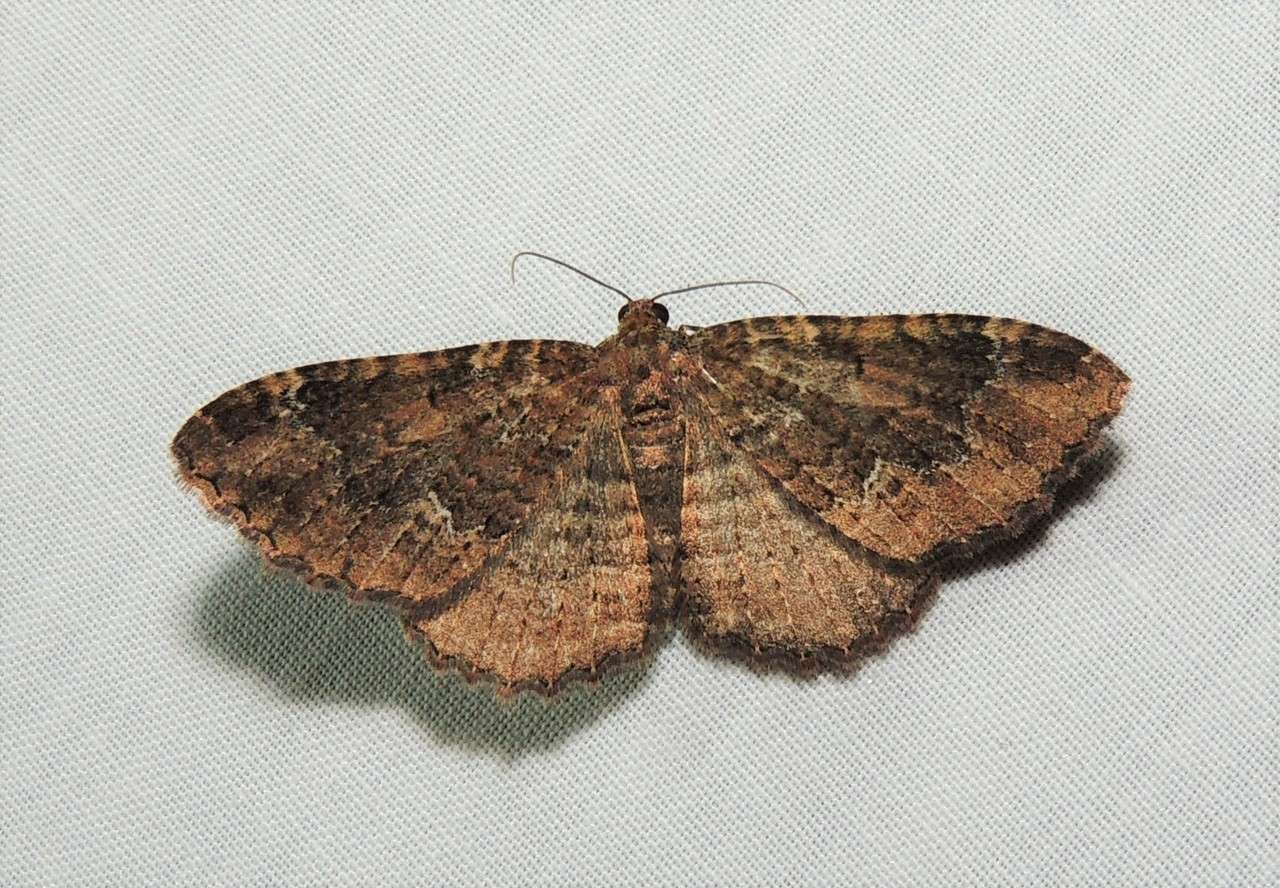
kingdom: Animalia
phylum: Arthropoda
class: Insecta
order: Lepidoptera
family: Geometridae
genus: Visiana
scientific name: Visiana brujata
